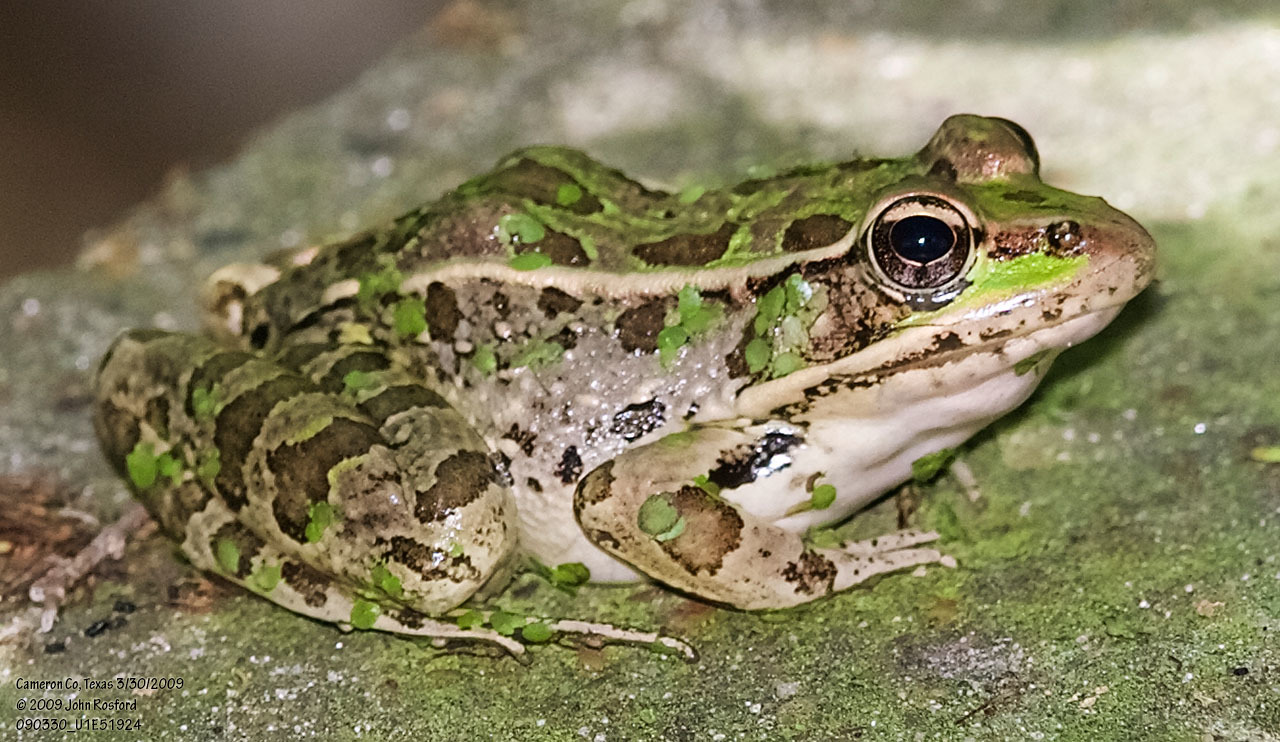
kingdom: Animalia
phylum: Chordata
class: Amphibia
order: Anura
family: Ranidae
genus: Lithobates
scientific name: Lithobates berlandieri
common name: Rio grande leopard frog
